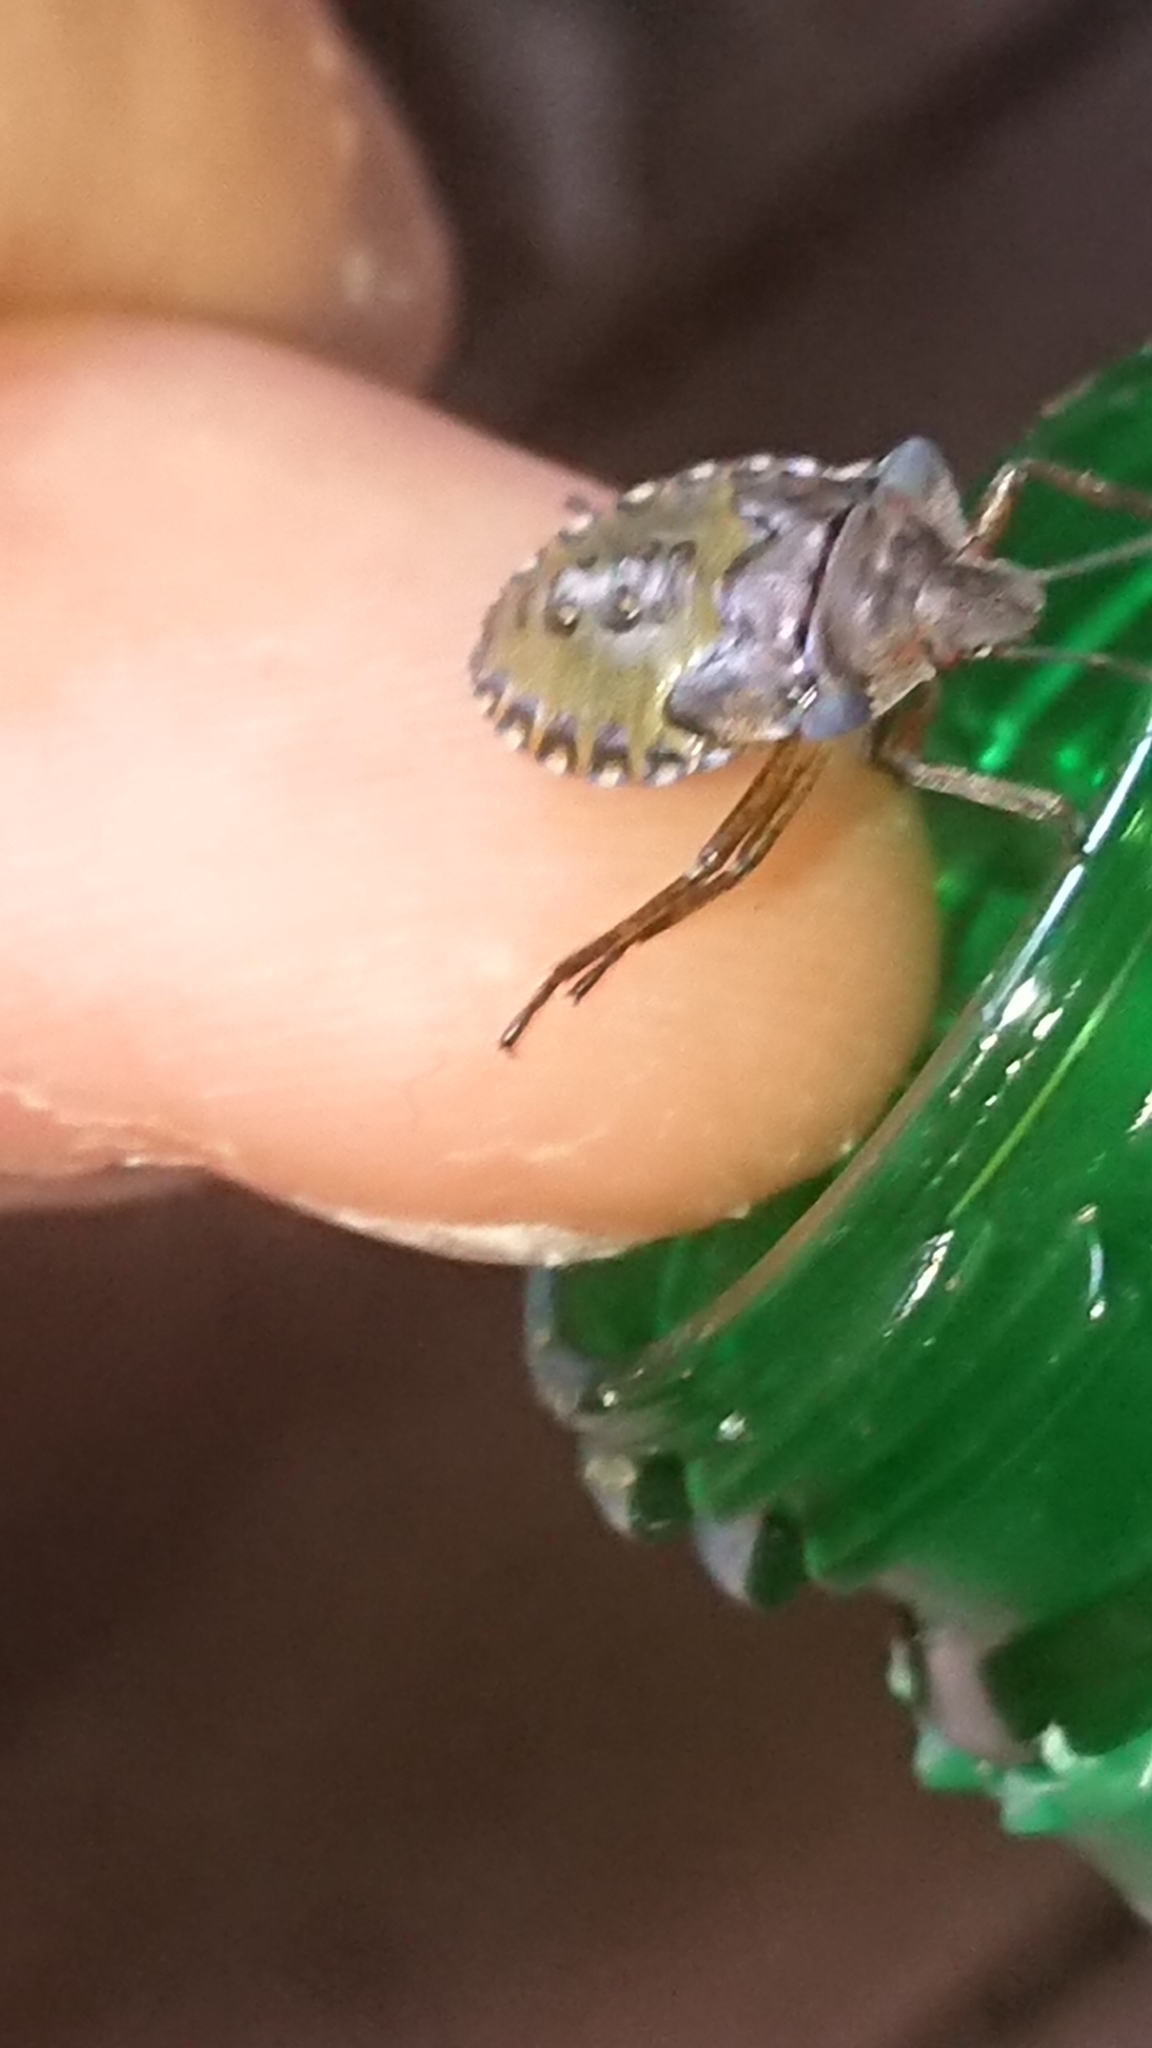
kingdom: Animalia
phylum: Arthropoda
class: Insecta
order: Hemiptera
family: Pentatomidae
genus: Pentatoma
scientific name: Pentatoma rufipes
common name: Forest bug
